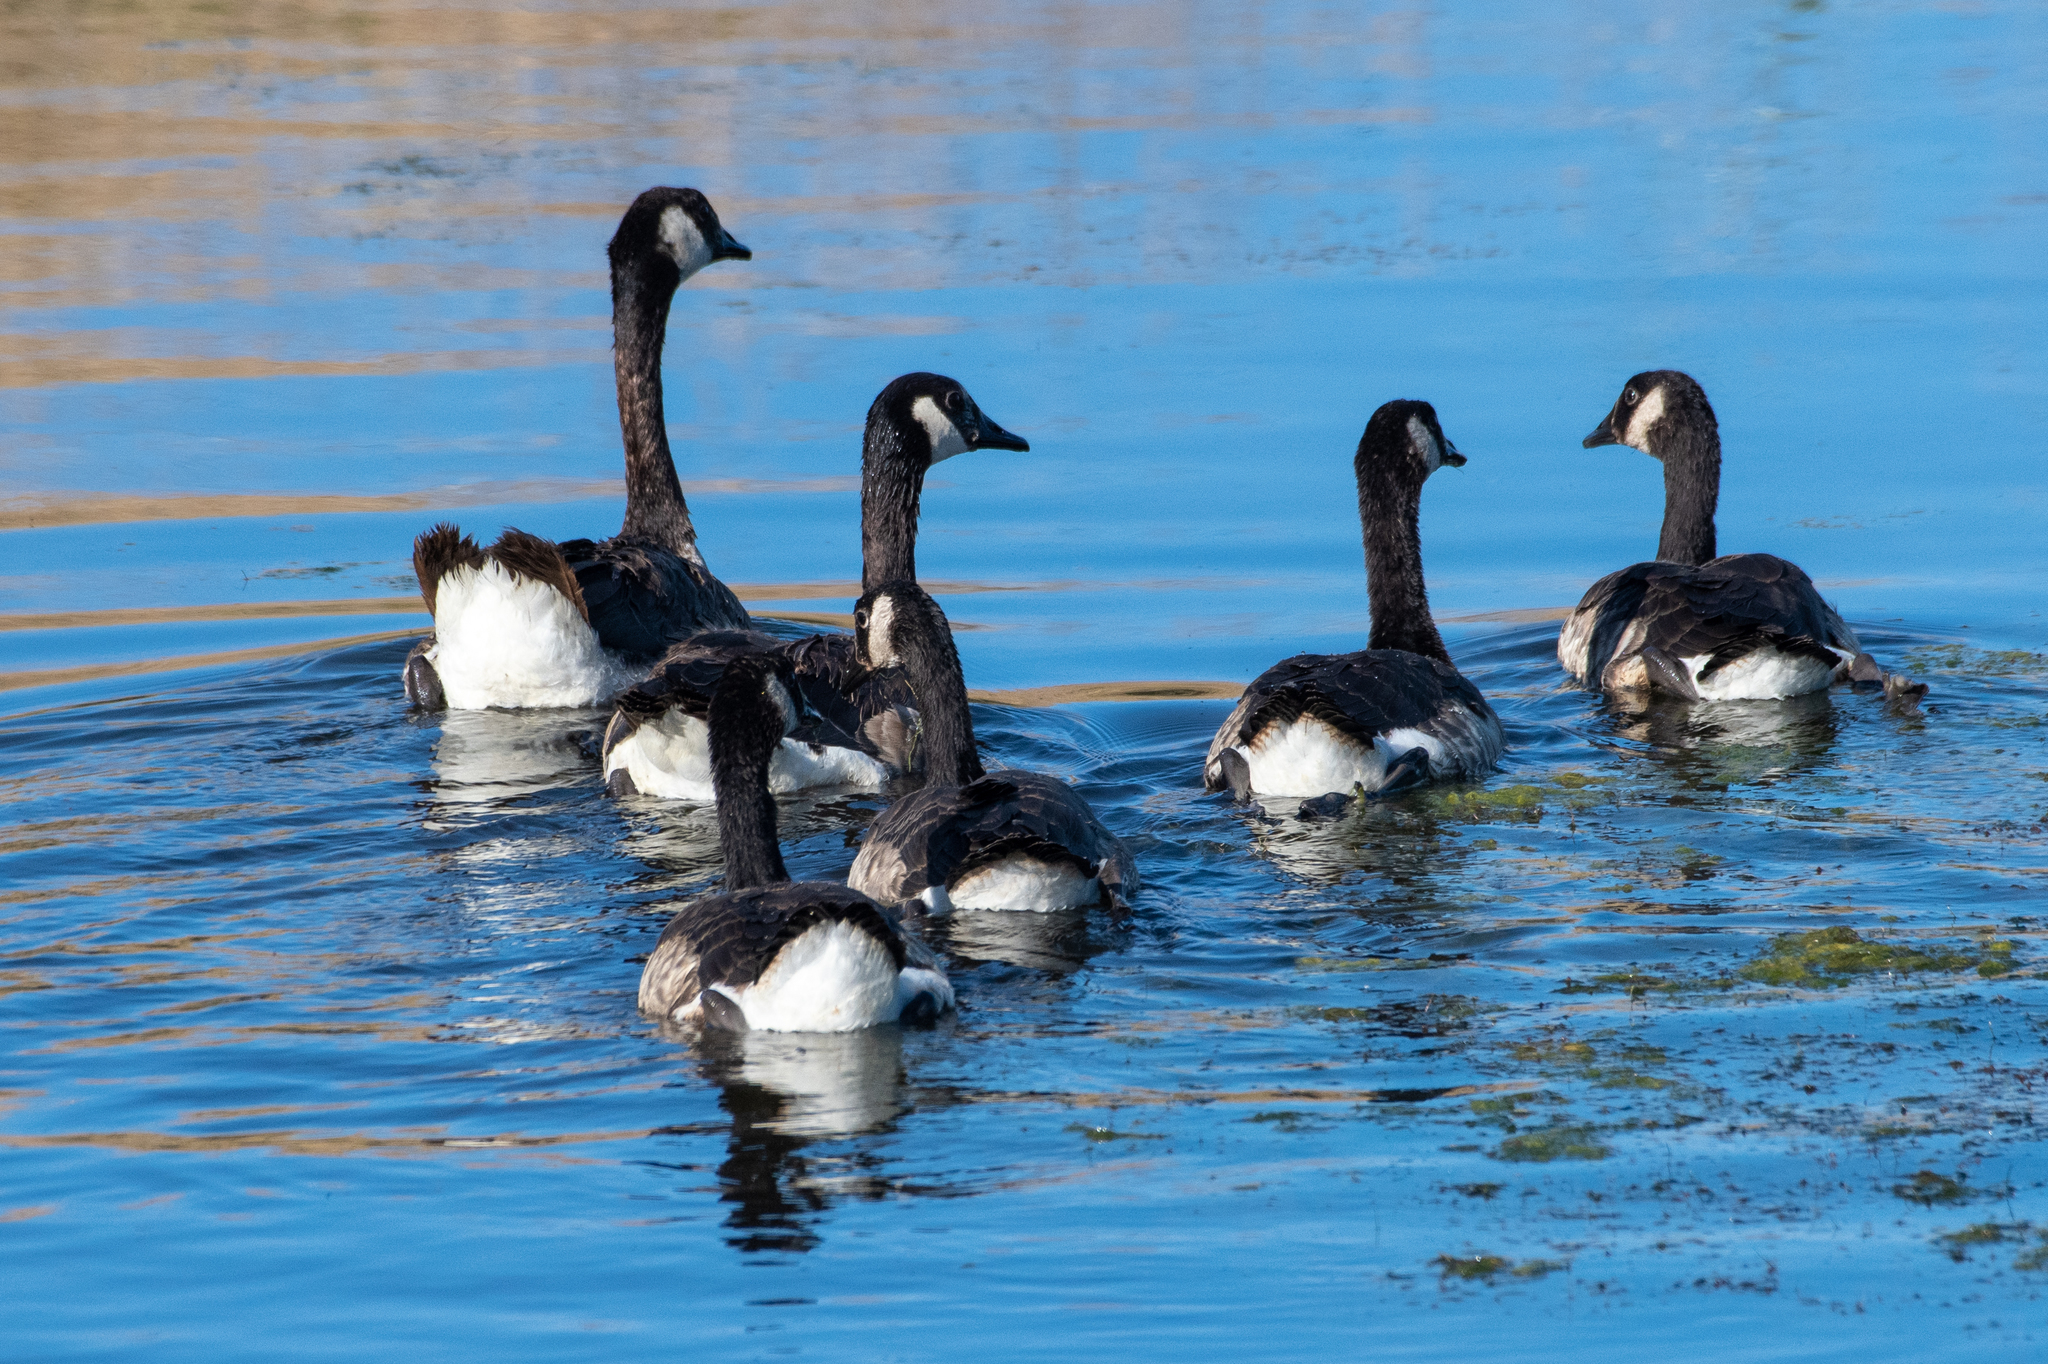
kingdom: Animalia
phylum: Chordata
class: Aves
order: Anseriformes
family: Anatidae
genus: Branta
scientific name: Branta canadensis
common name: Canada goose
